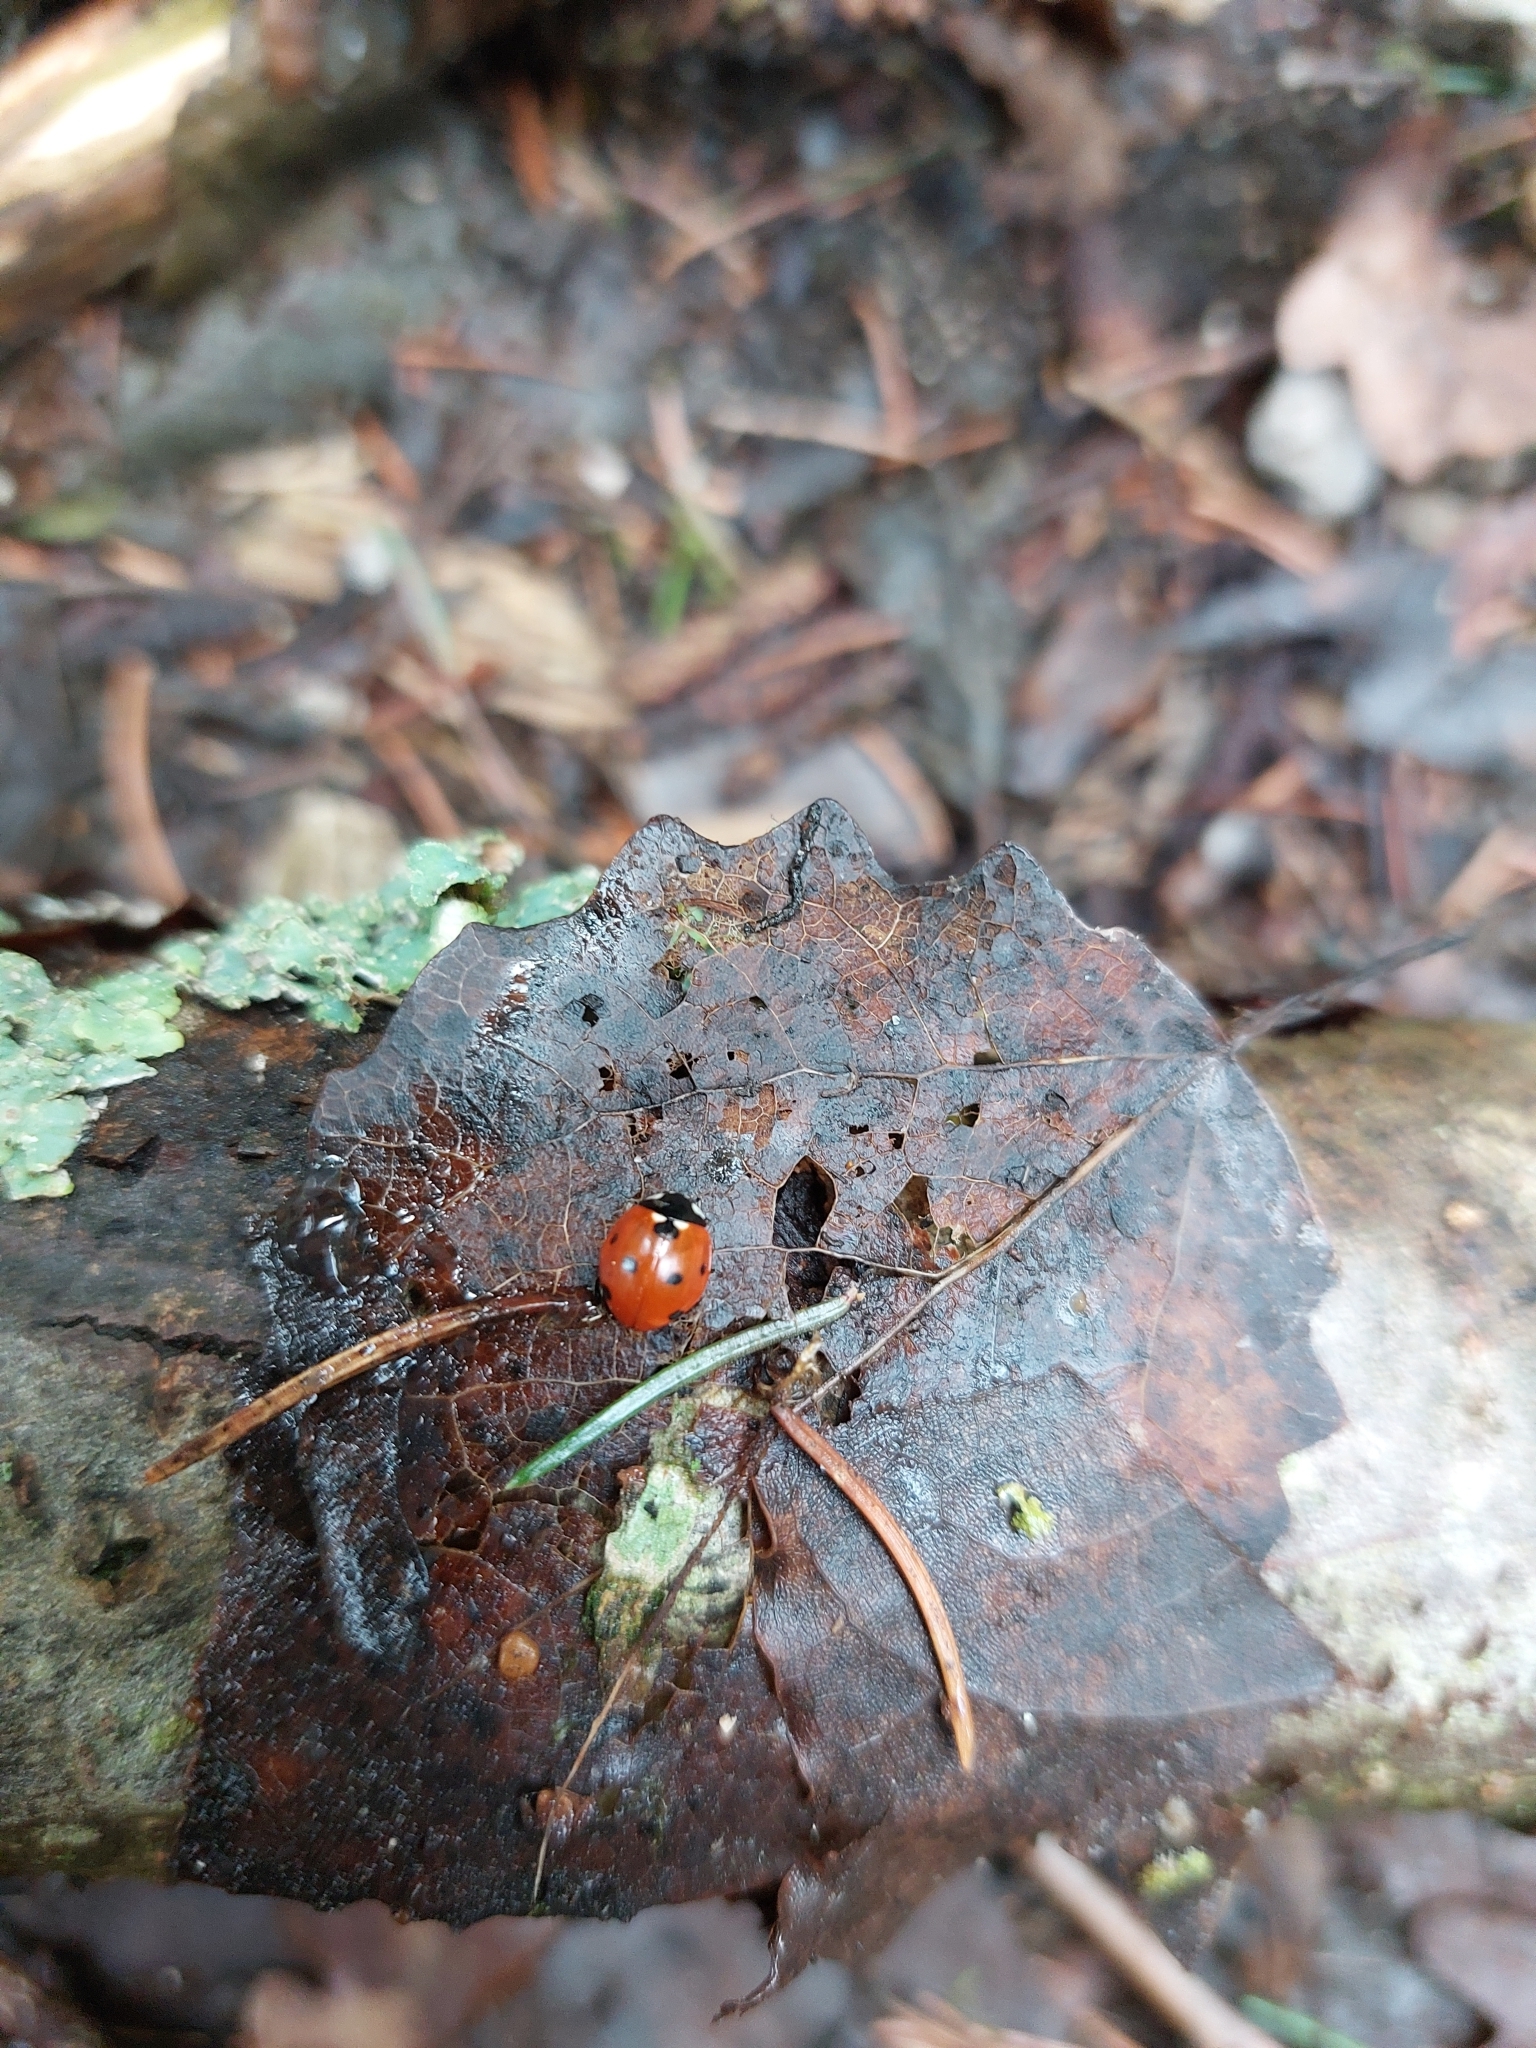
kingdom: Animalia
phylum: Arthropoda
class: Insecta
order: Coleoptera
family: Coccinellidae
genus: Coccinella
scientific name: Coccinella septempunctata
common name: Sevenspotted lady beetle
